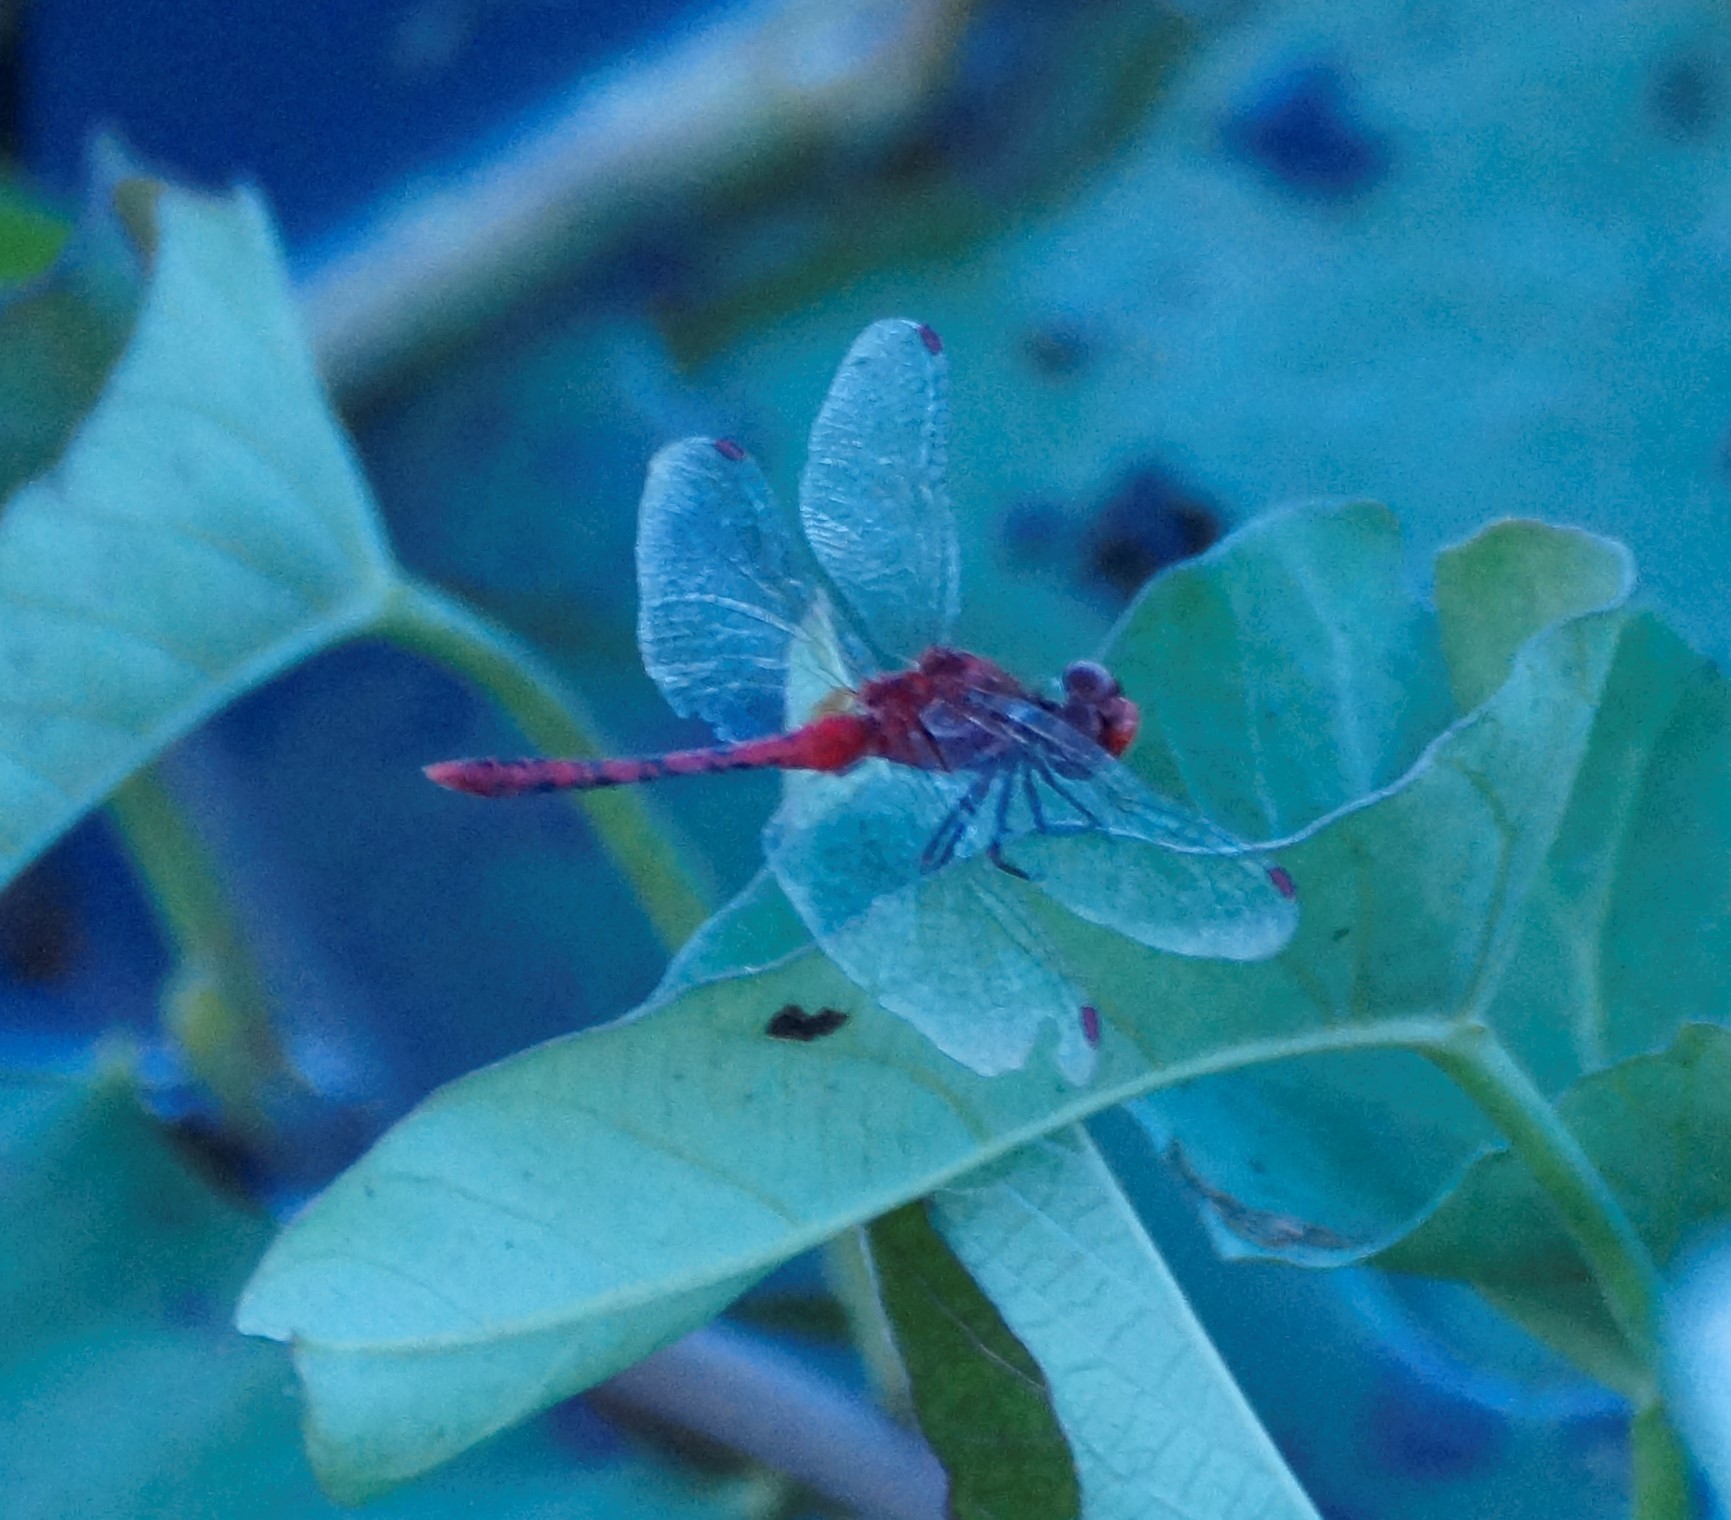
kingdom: Animalia
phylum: Arthropoda
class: Insecta
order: Odonata
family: Libellulidae
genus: Diplacodes
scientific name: Diplacodes bipunctata
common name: Red percher dragonfly
